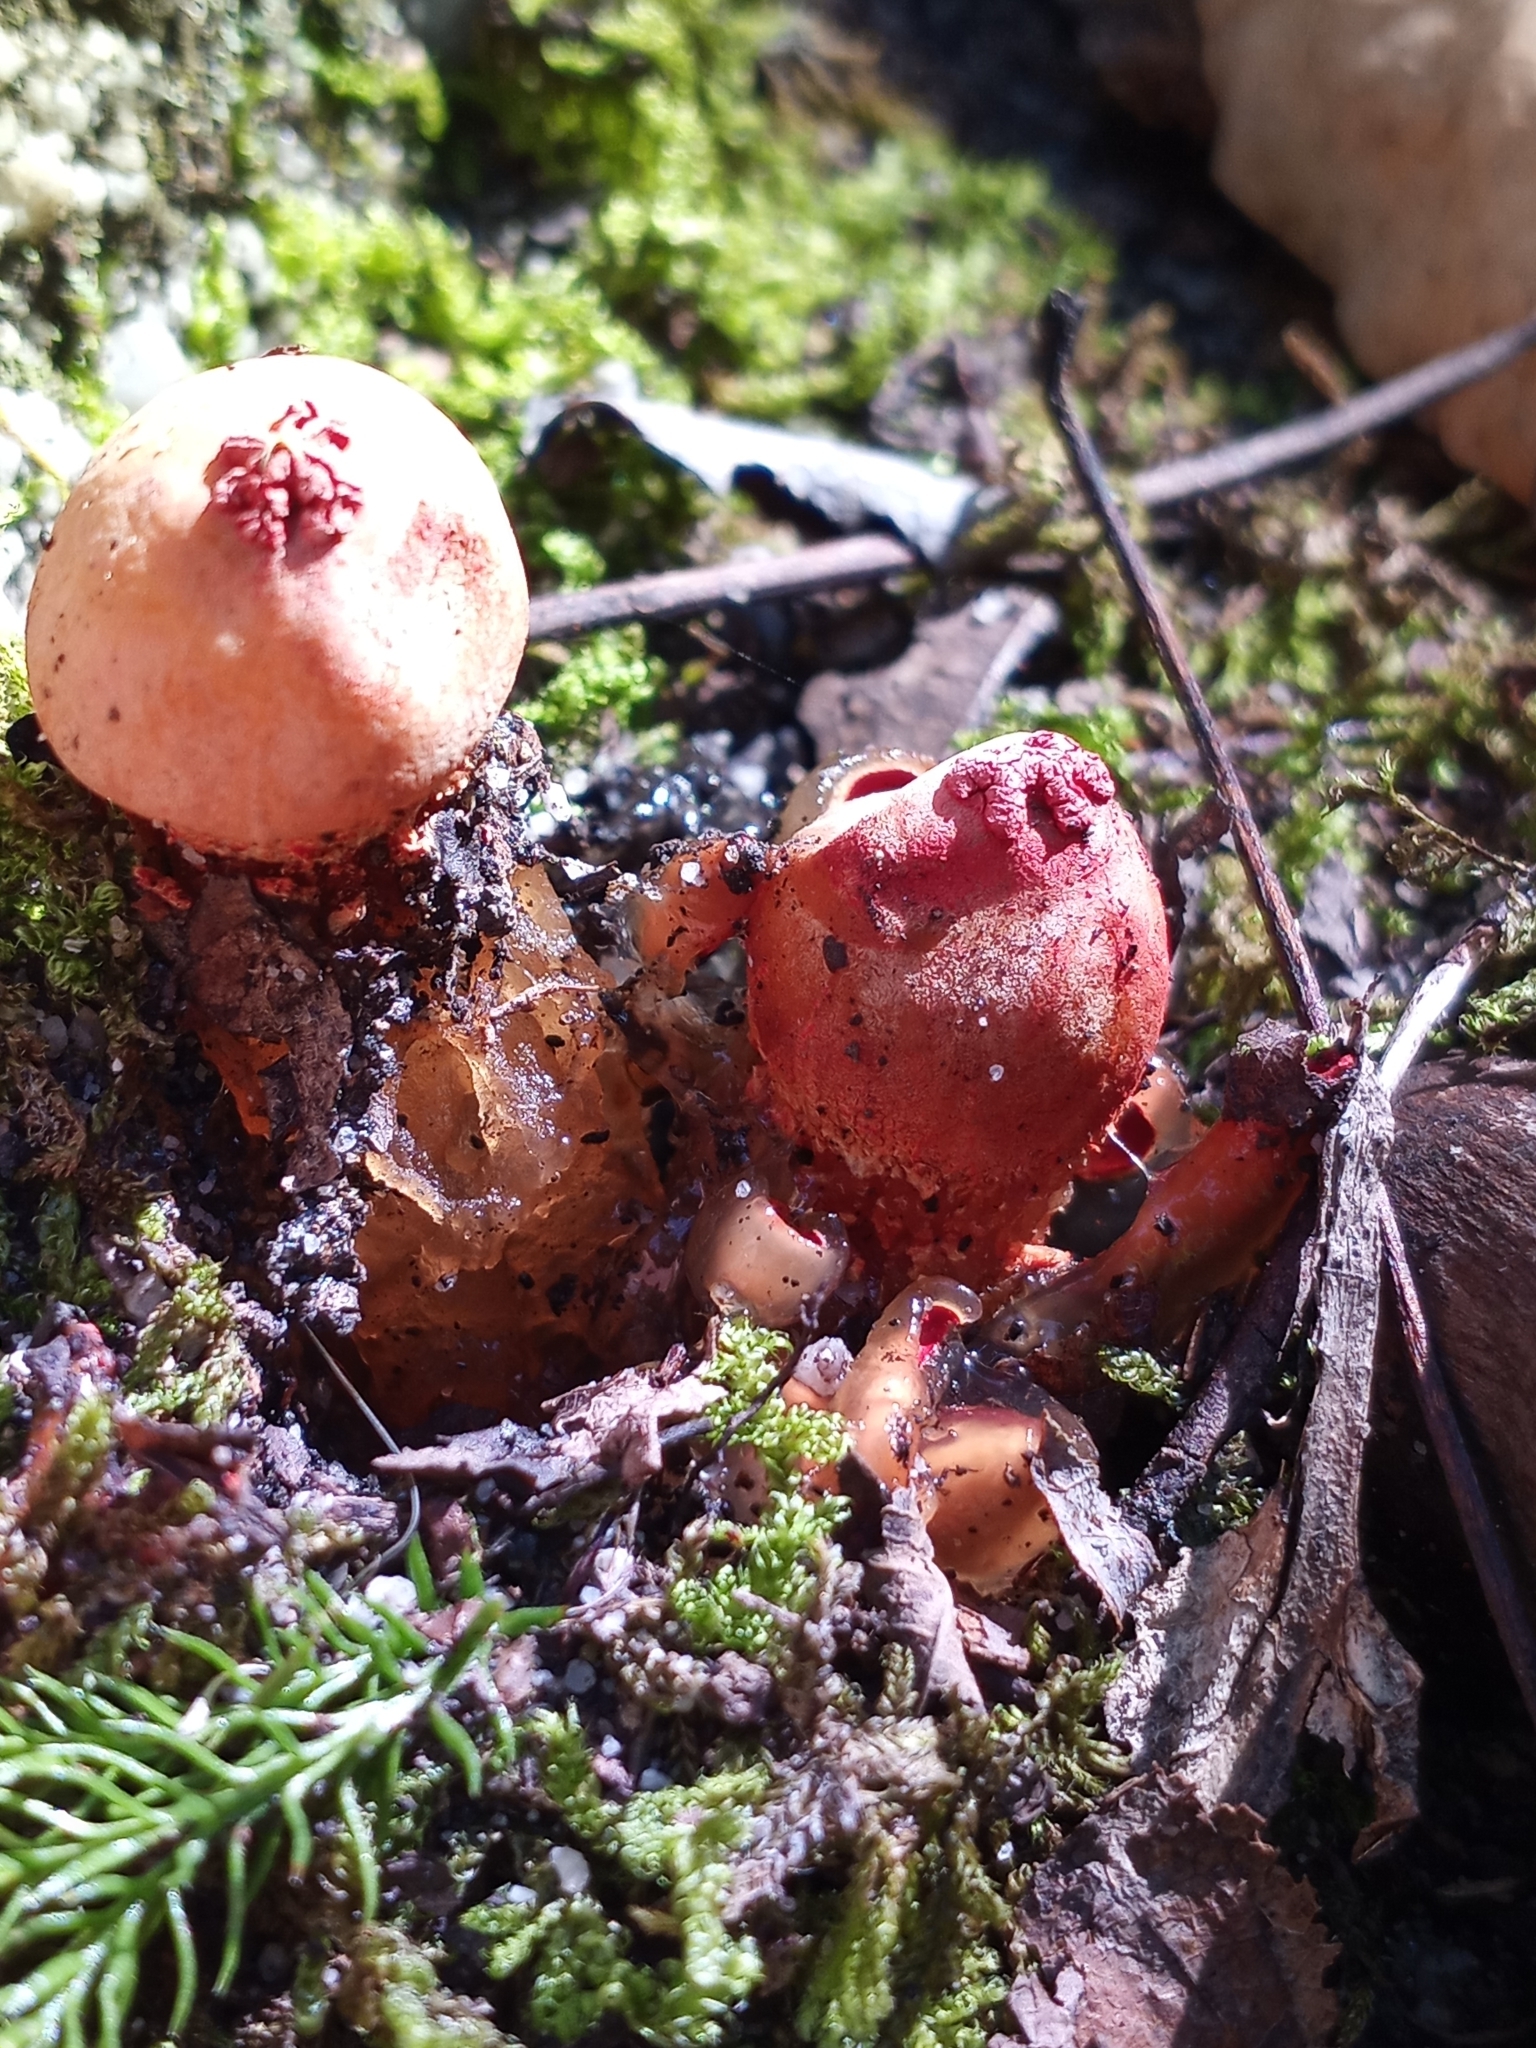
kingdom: Fungi
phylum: Basidiomycota
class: Agaricomycetes
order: Boletales
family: Calostomataceae
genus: Calostoma
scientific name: Calostoma cinnabarinum
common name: Stalked puffball-in-aspic
